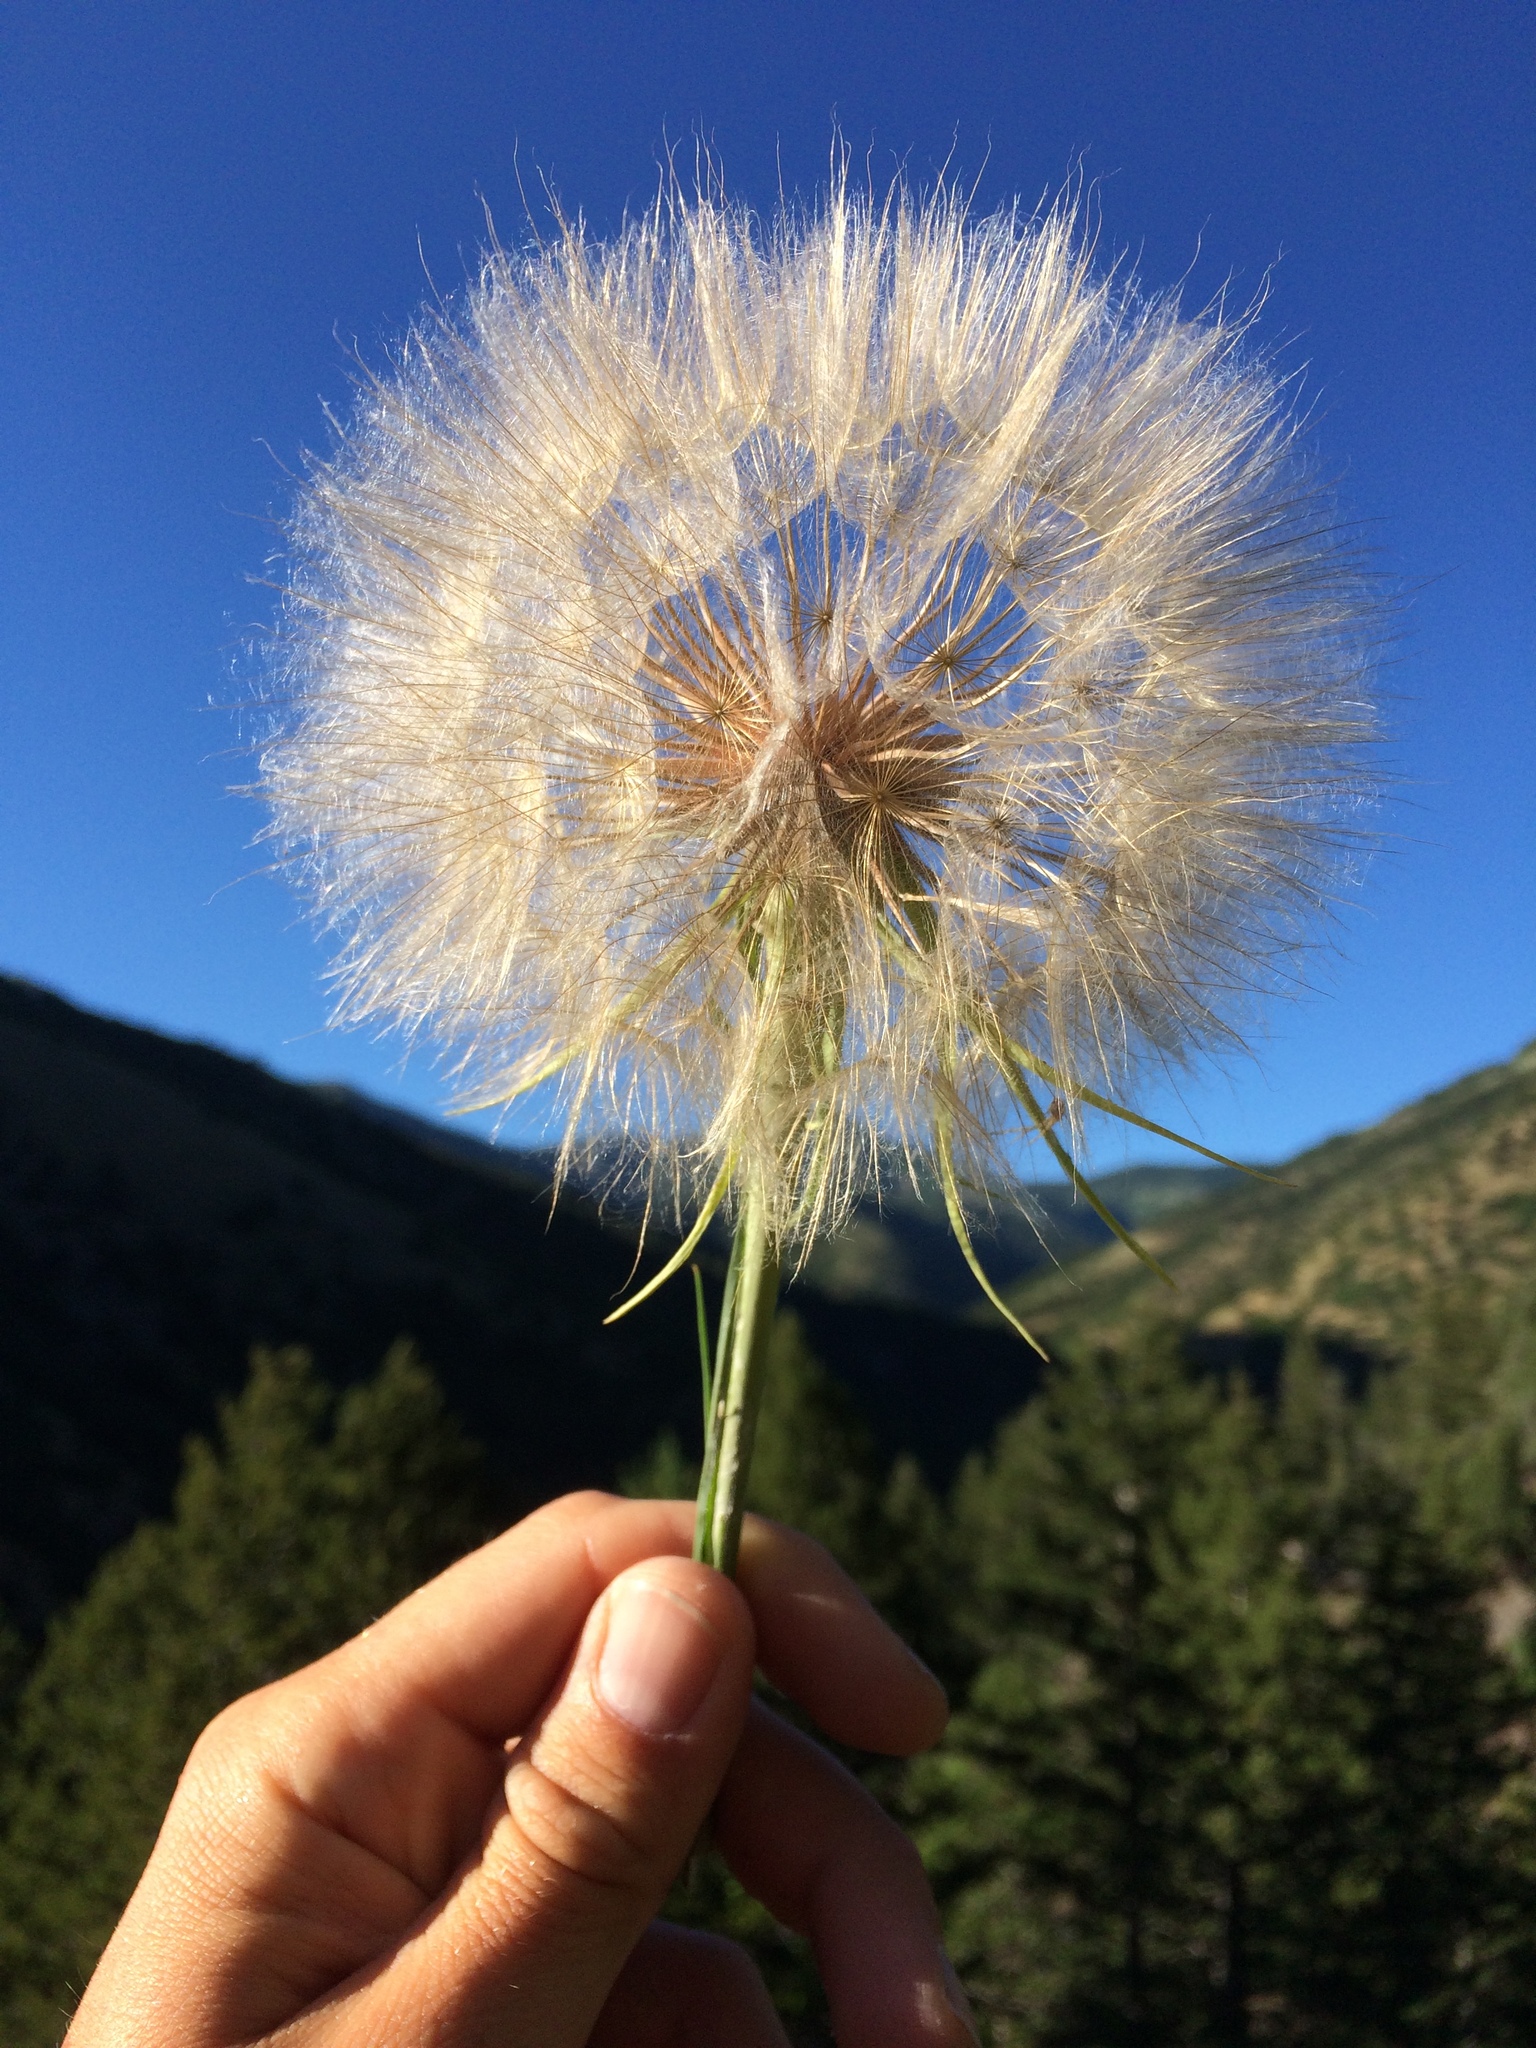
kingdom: Plantae
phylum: Tracheophyta
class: Magnoliopsida
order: Asterales
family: Asteraceae
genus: Tragopogon
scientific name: Tragopogon dubius
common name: Yellow salsify
